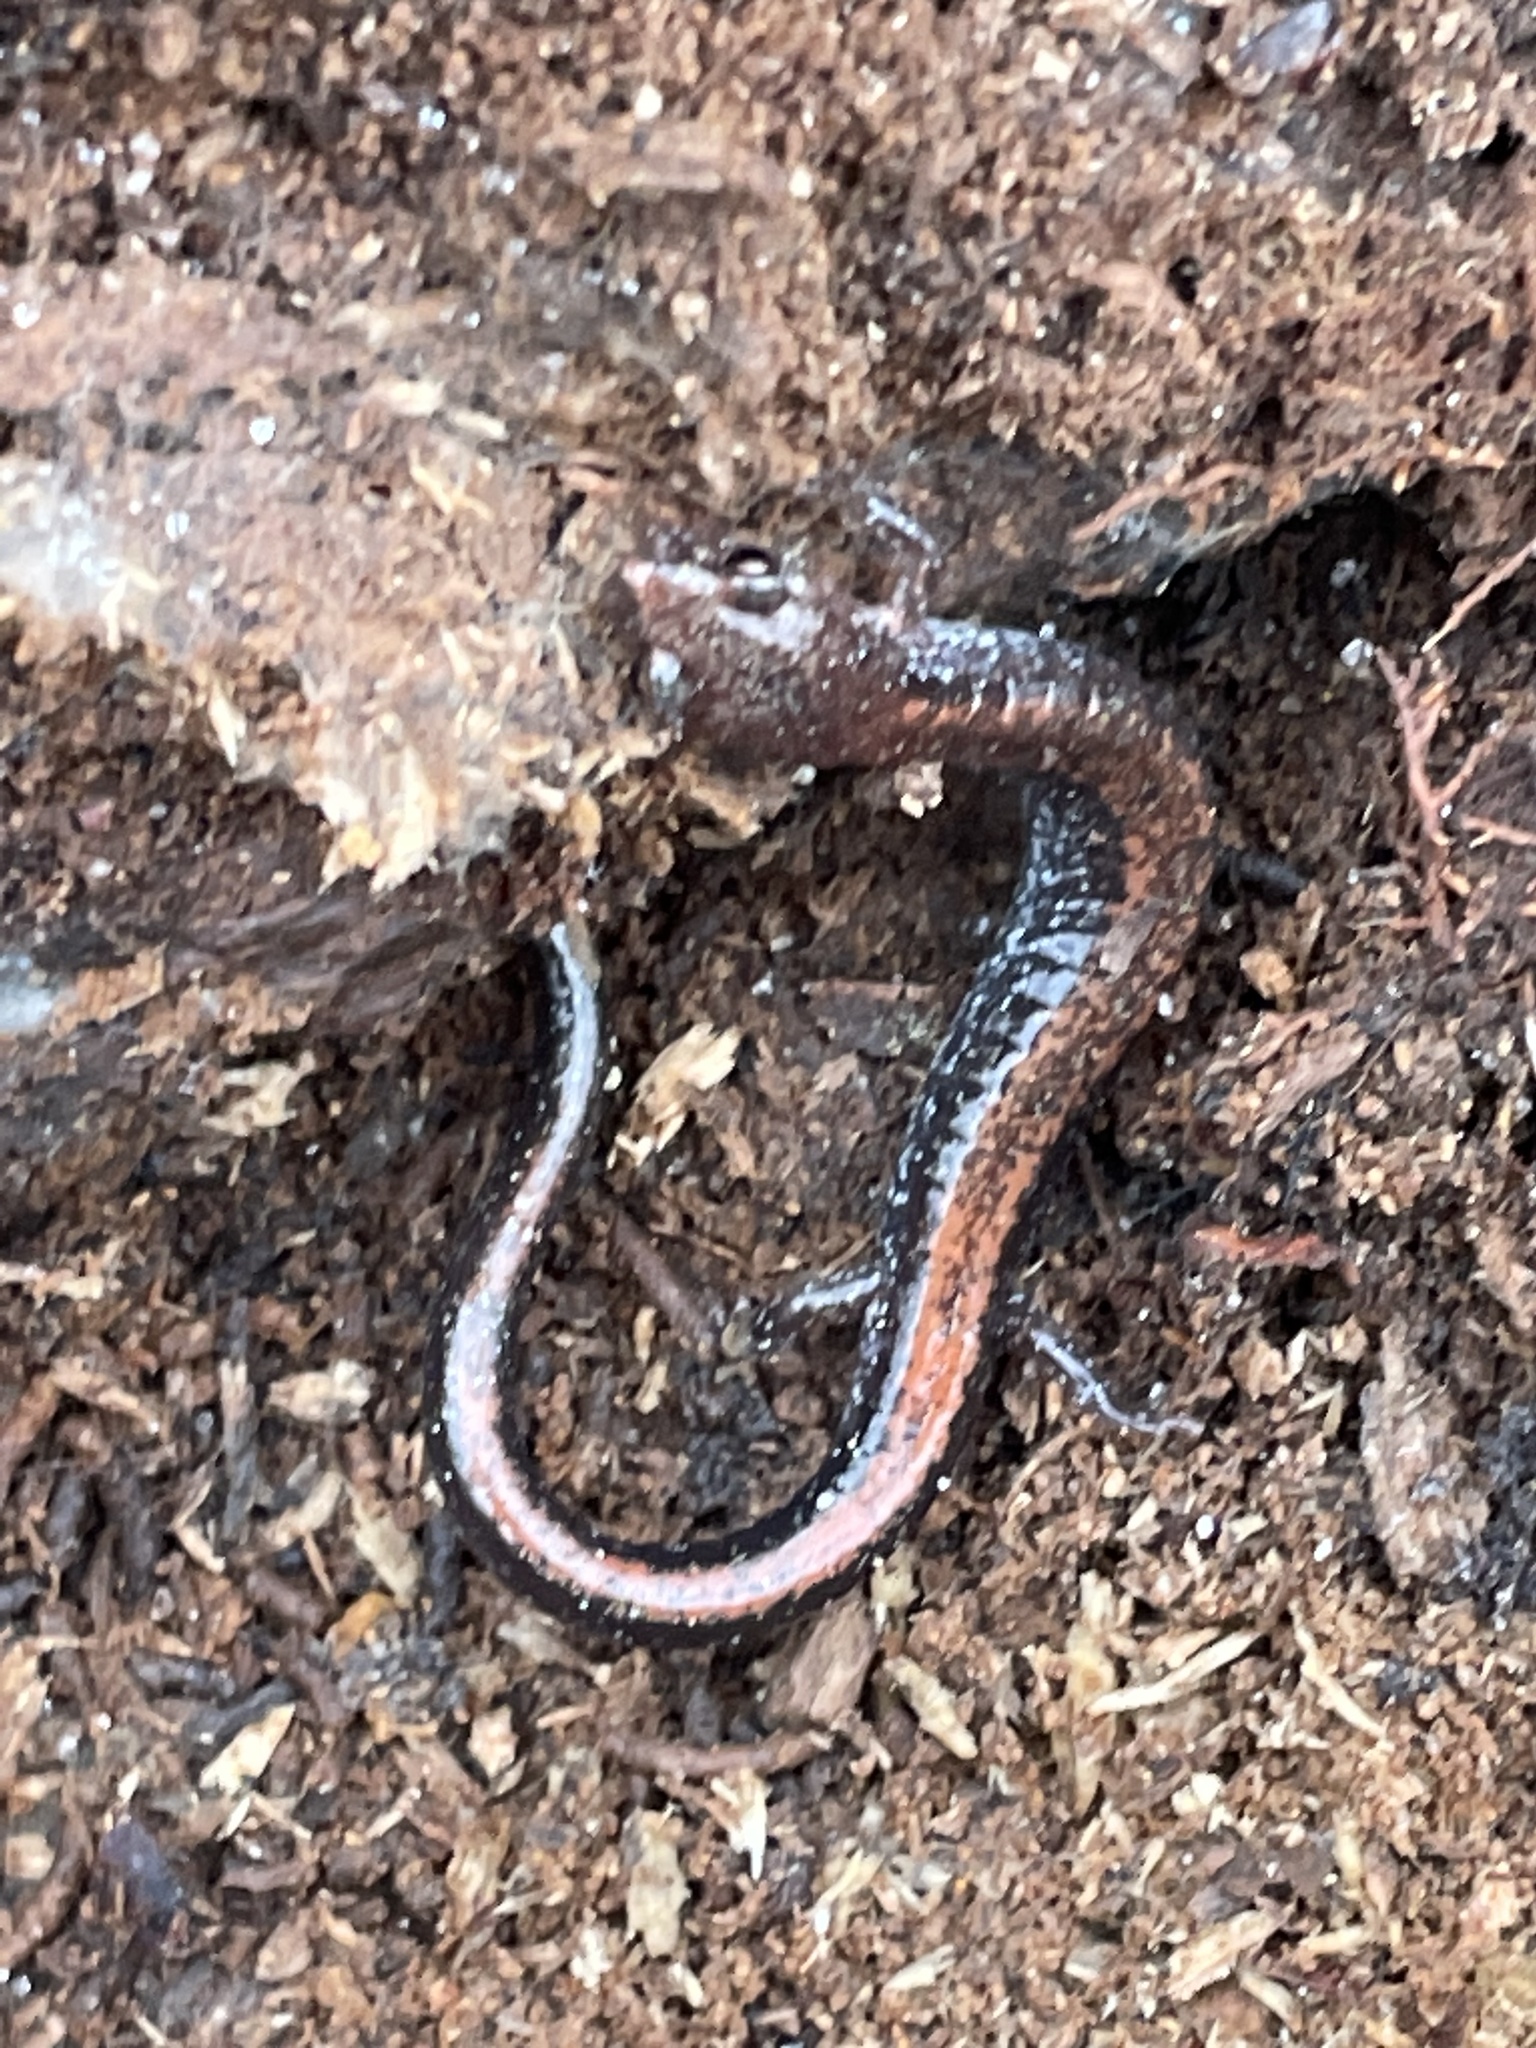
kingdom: Animalia
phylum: Chordata
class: Amphibia
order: Caudata
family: Plethodontidae
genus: Plethodon
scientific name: Plethodon cinereus
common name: Redback salamander
